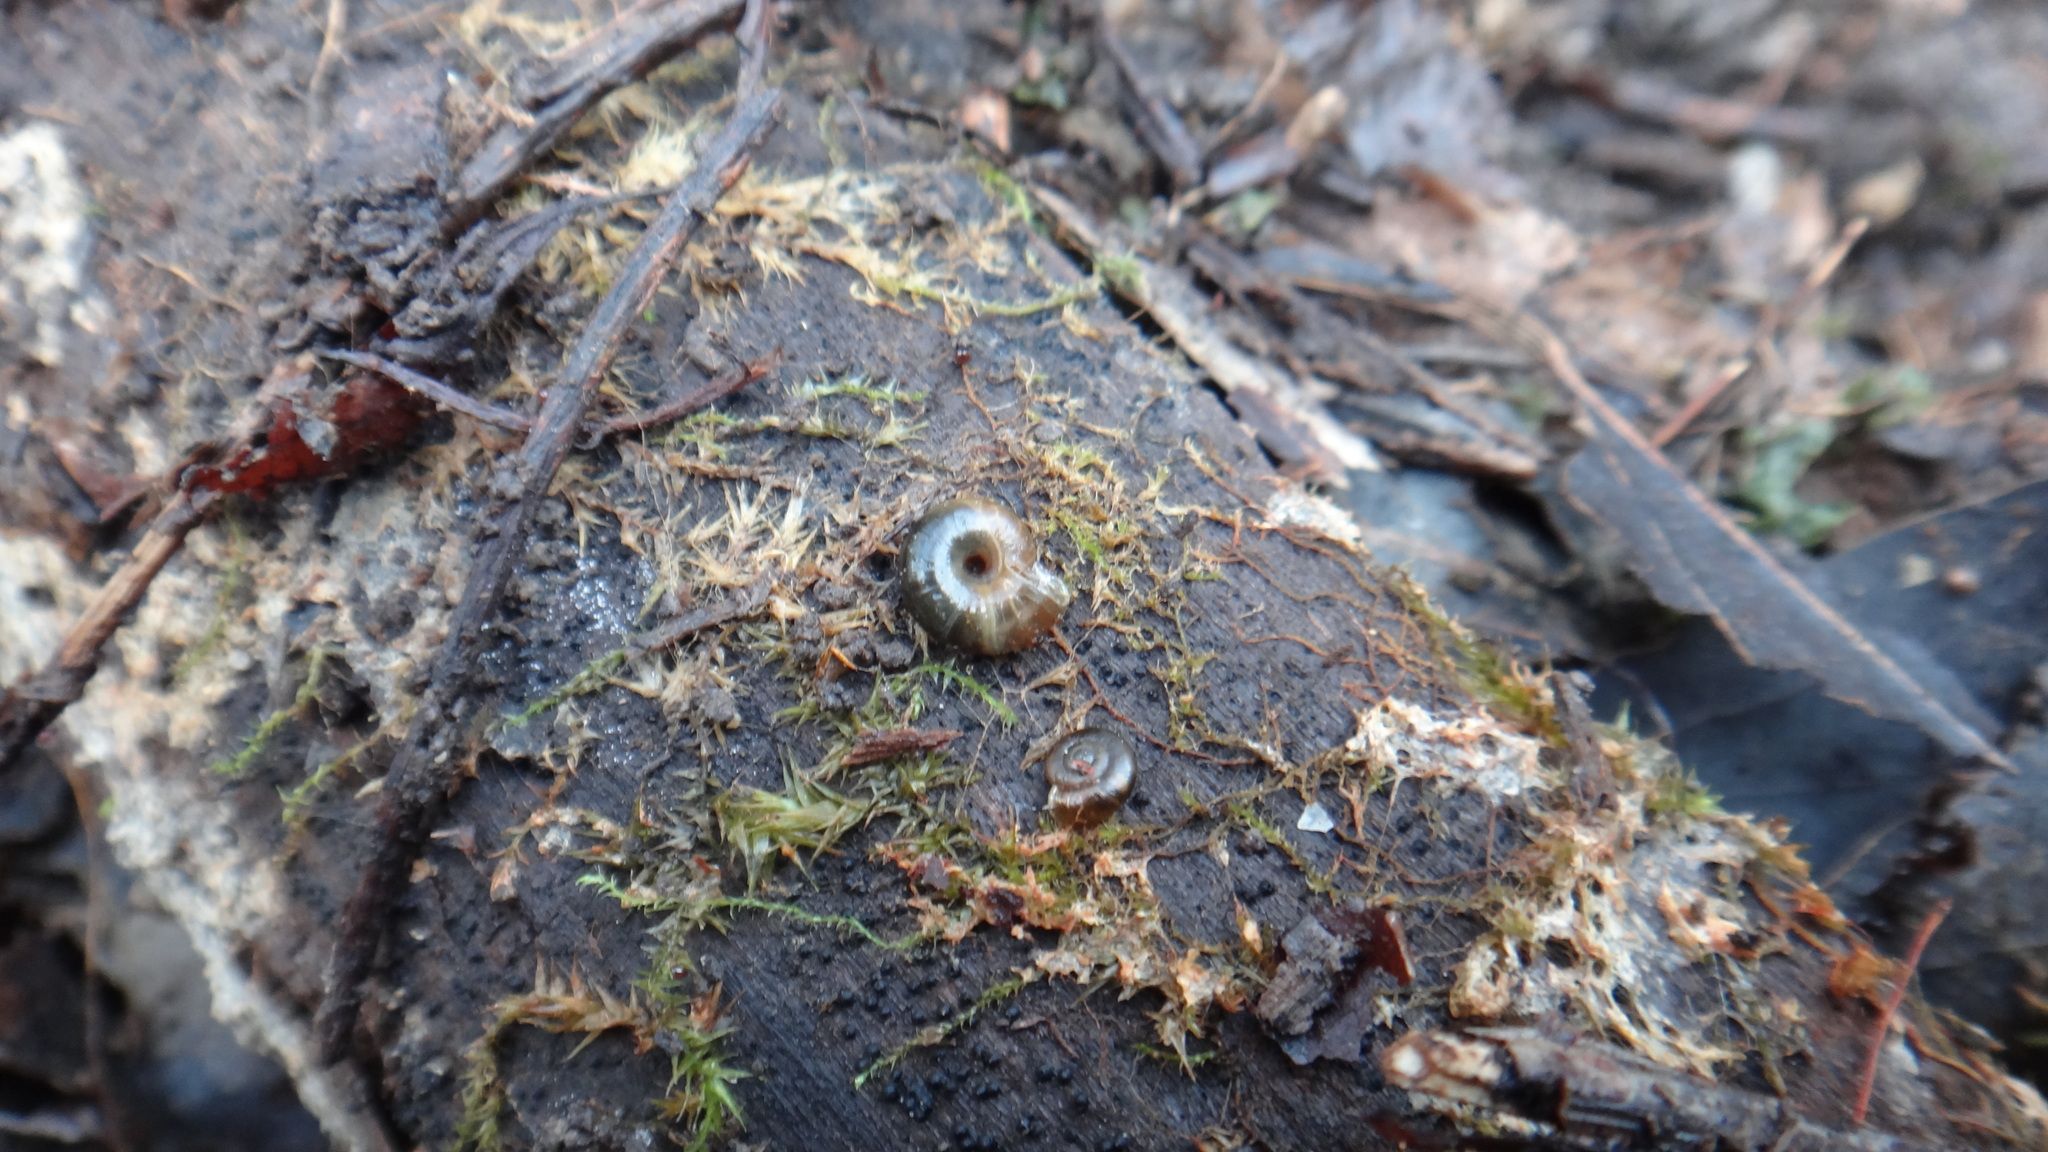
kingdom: Animalia
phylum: Mollusca
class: Gastropoda
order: Stylommatophora
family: Gastrodontidae
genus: Zonitoides
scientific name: Zonitoides nitidus
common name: Shiny glass snail
